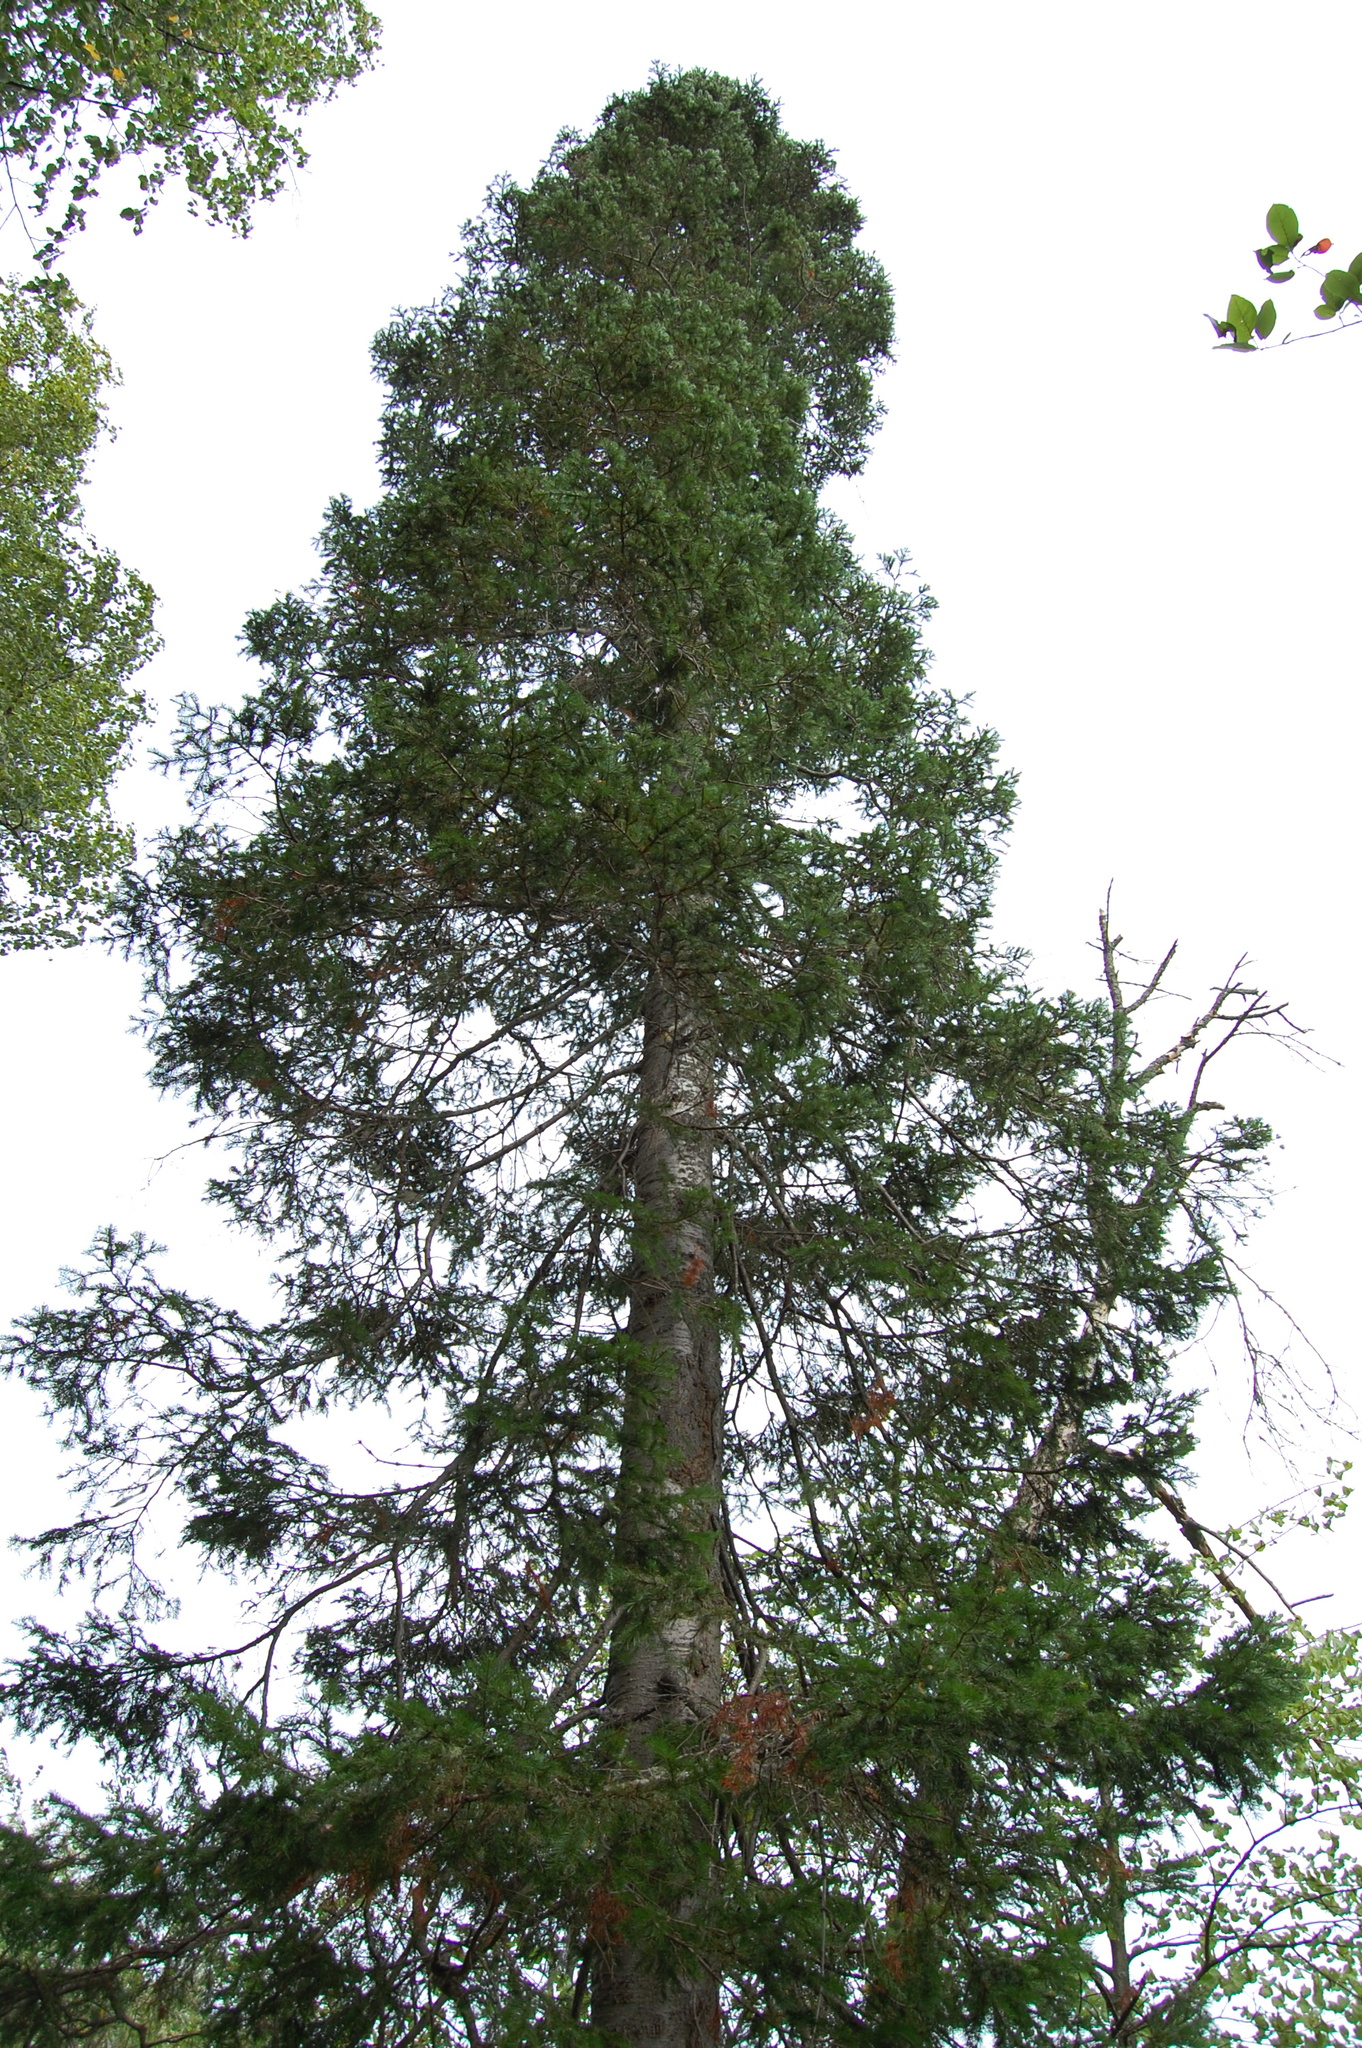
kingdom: Plantae
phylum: Tracheophyta
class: Pinopsida
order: Pinales
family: Pinaceae
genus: Abies
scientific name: Abies sibirica
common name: Siberian fir
